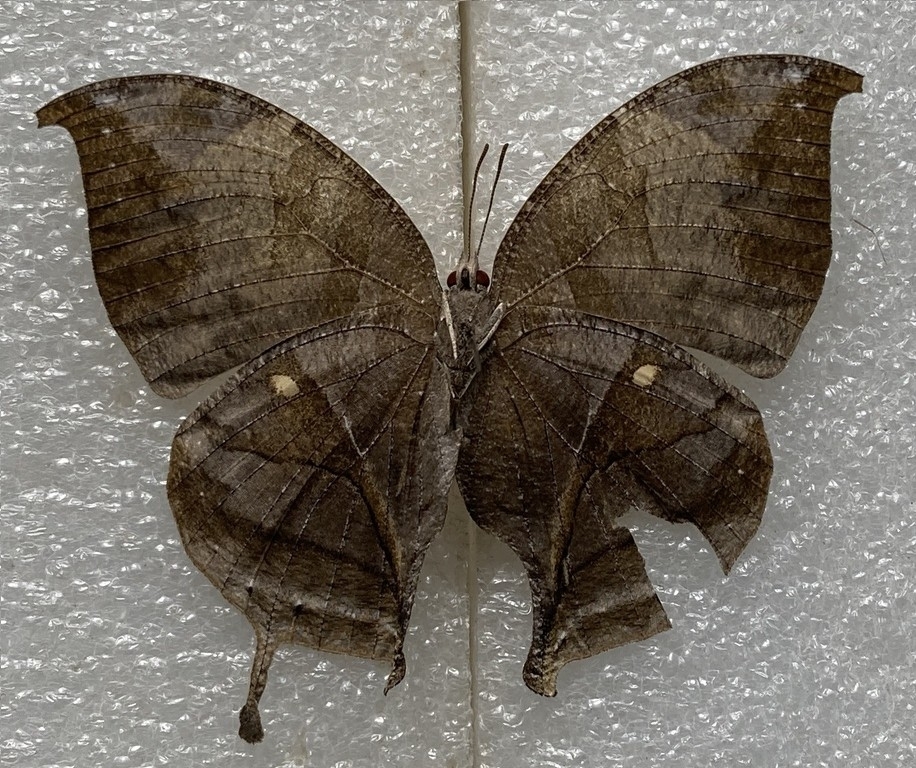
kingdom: Animalia
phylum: Arthropoda
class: Insecta
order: Lepidoptera
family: Nymphalidae
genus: Consul
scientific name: Consul electra
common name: Pearly leafwing
